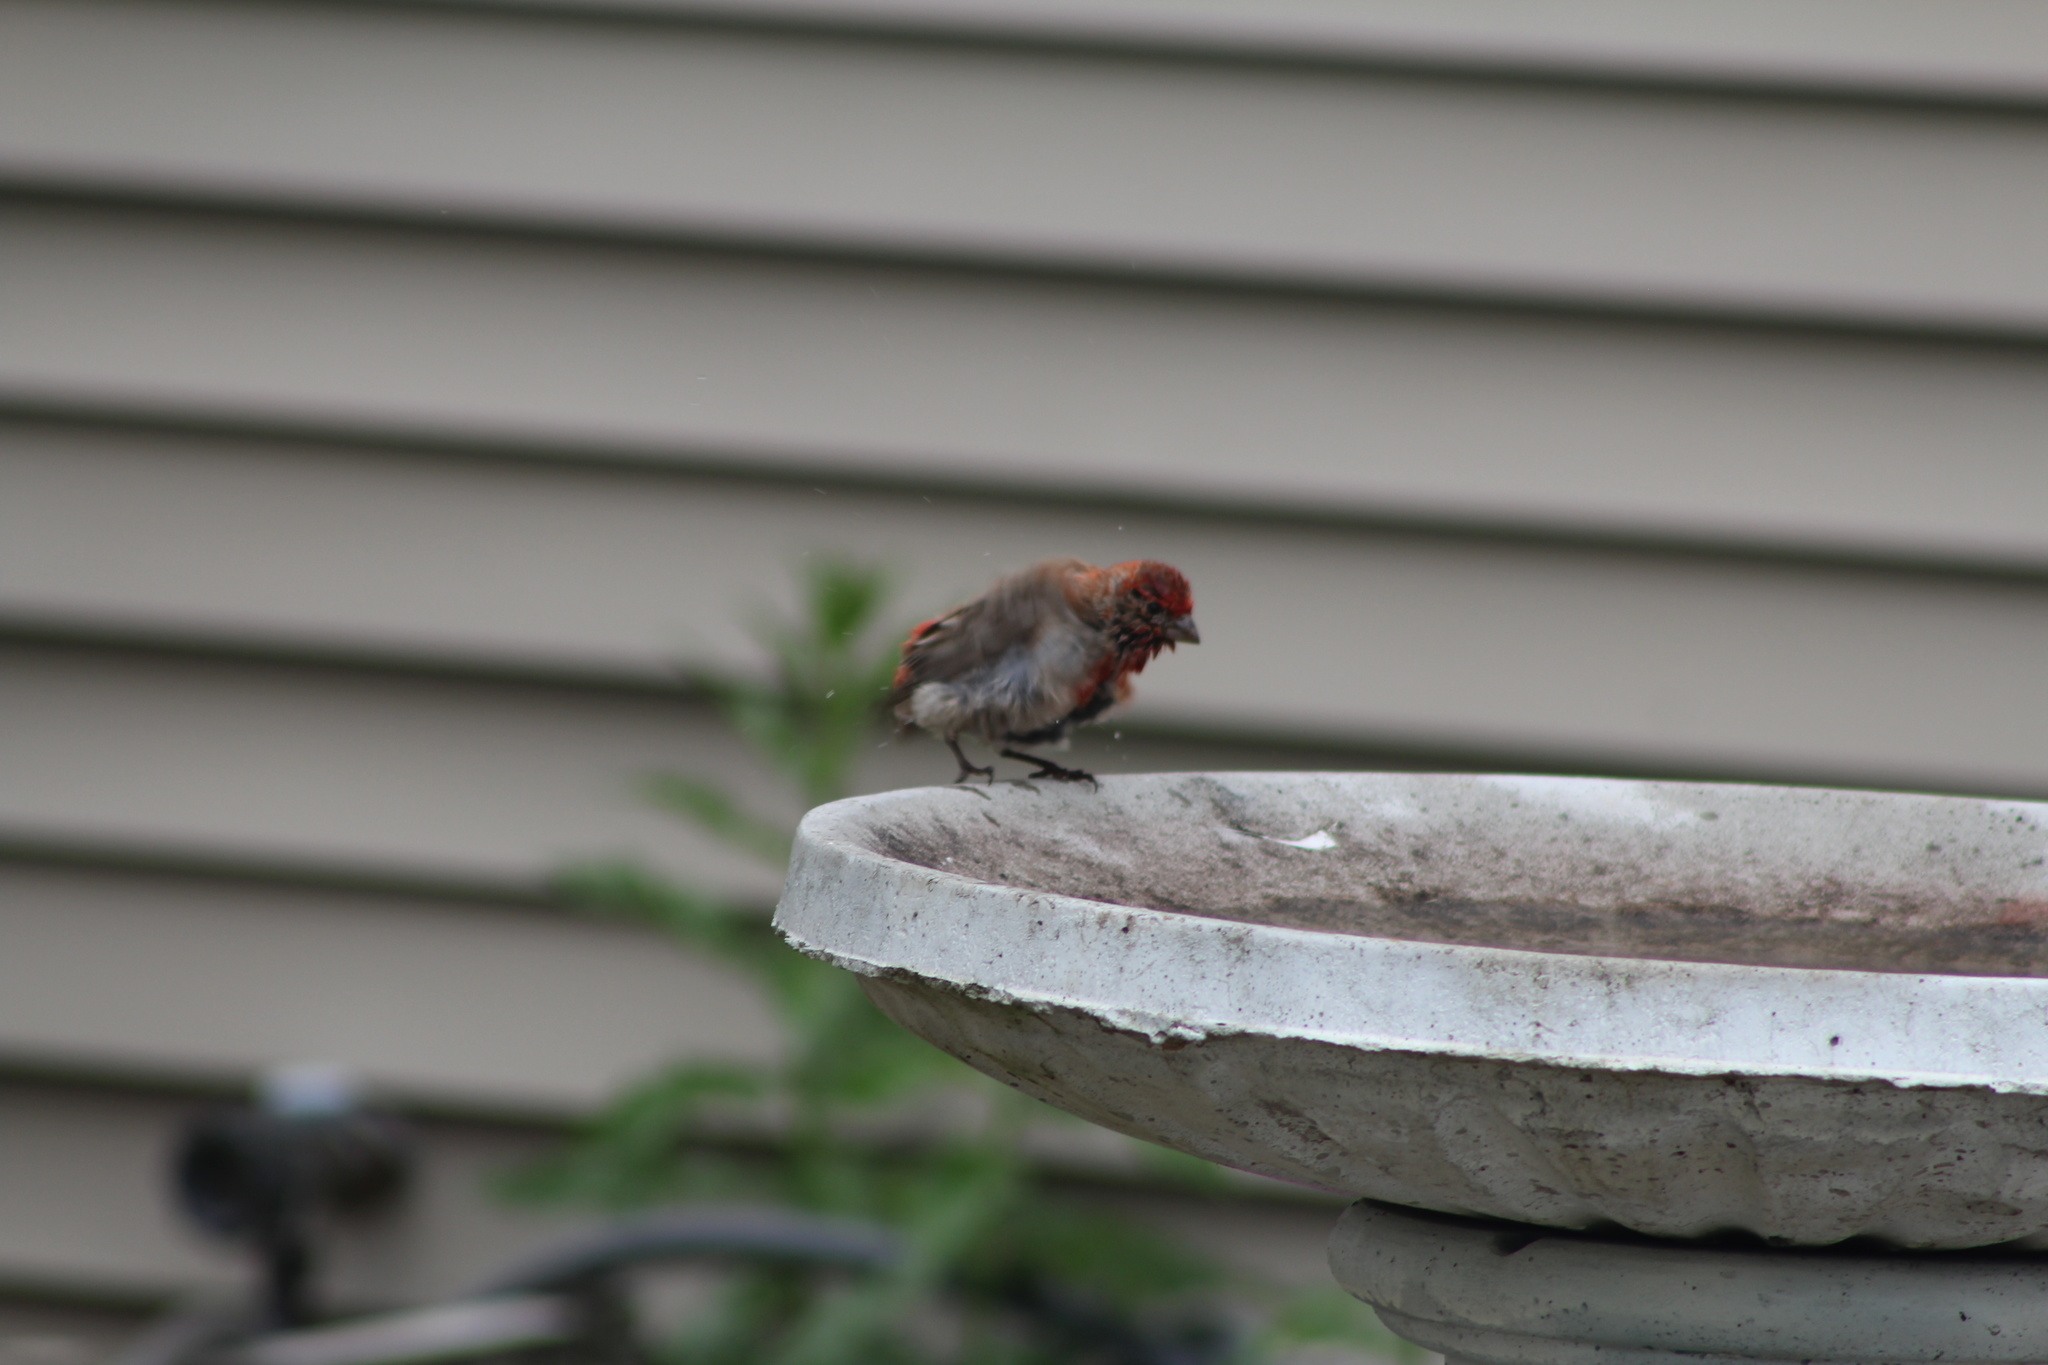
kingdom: Animalia
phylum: Chordata
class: Aves
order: Passeriformes
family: Fringillidae
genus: Haemorhous
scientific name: Haemorhous mexicanus
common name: House finch
